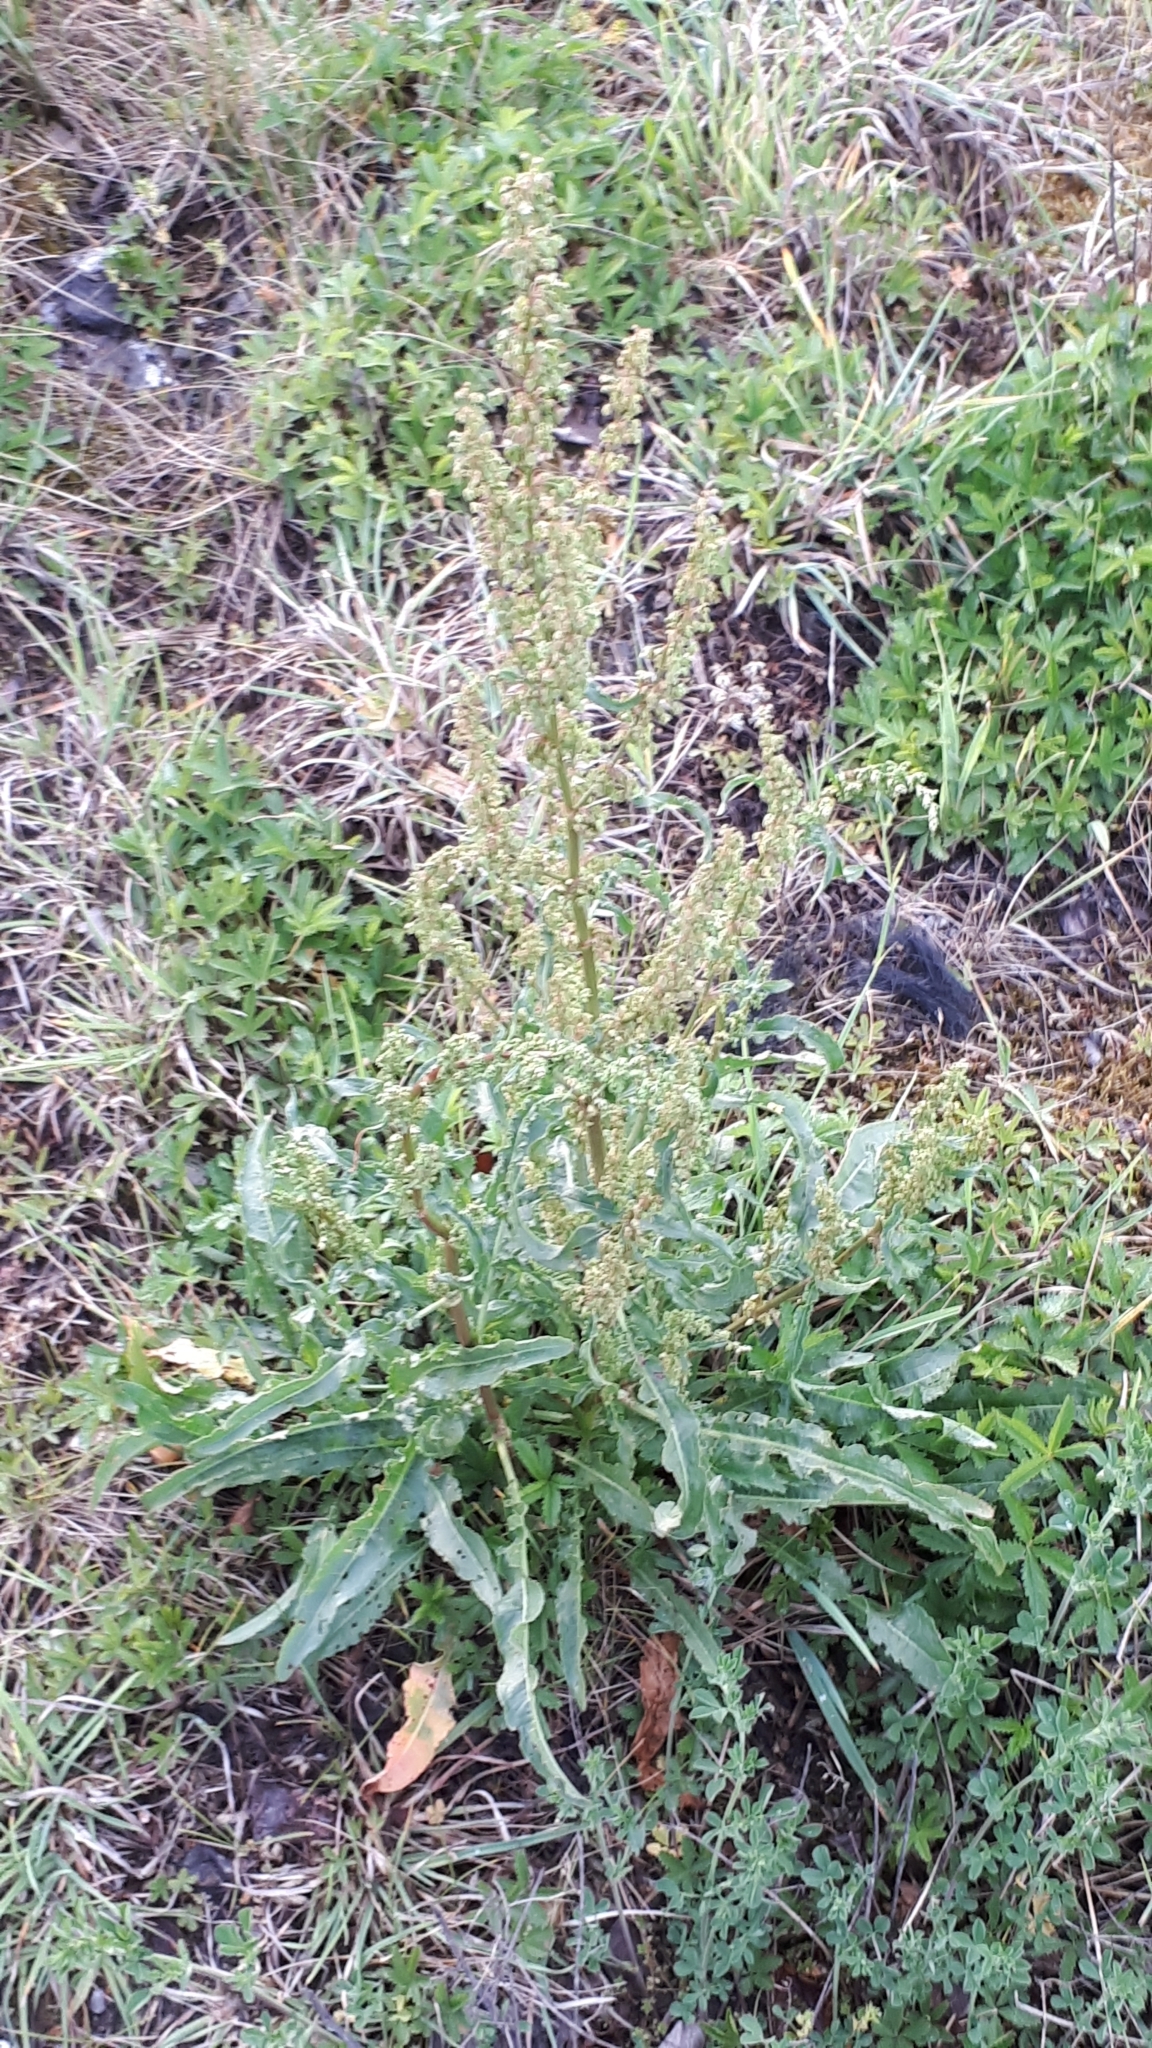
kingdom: Plantae
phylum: Tracheophyta
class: Magnoliopsida
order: Caryophyllales
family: Polygonaceae
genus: Rumex
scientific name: Rumex crispus
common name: Curled dock
